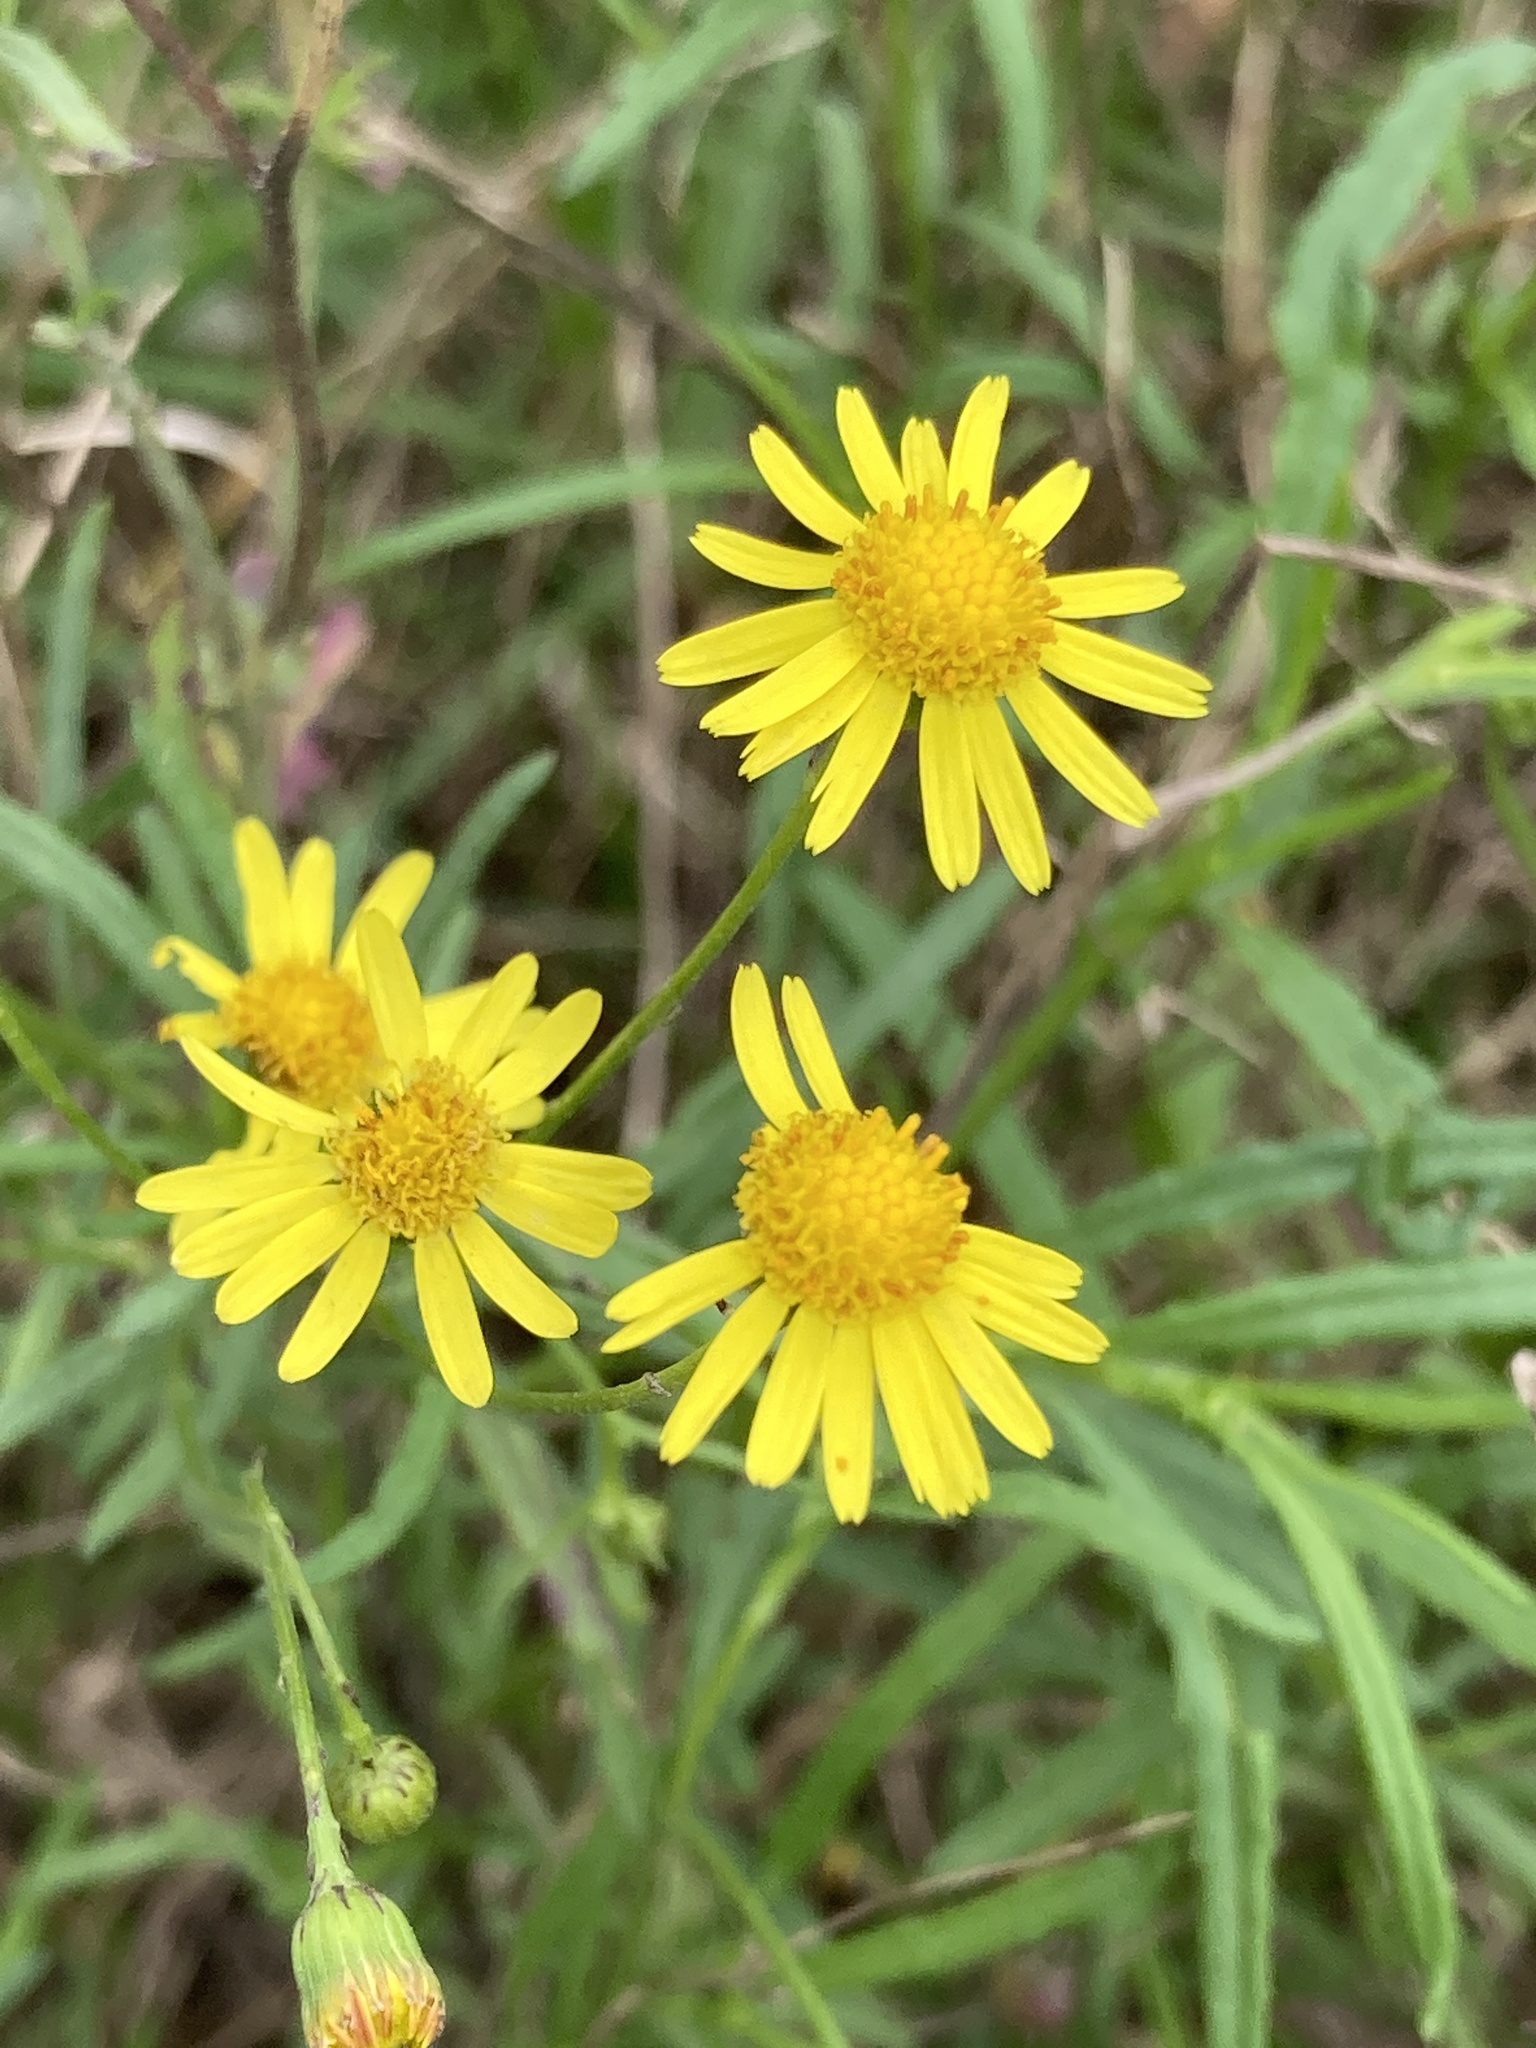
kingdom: Plantae
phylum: Tracheophyta
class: Magnoliopsida
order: Asterales
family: Asteraceae
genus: Senecio
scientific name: Senecio madagascariensis
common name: Madagascar ragwort
